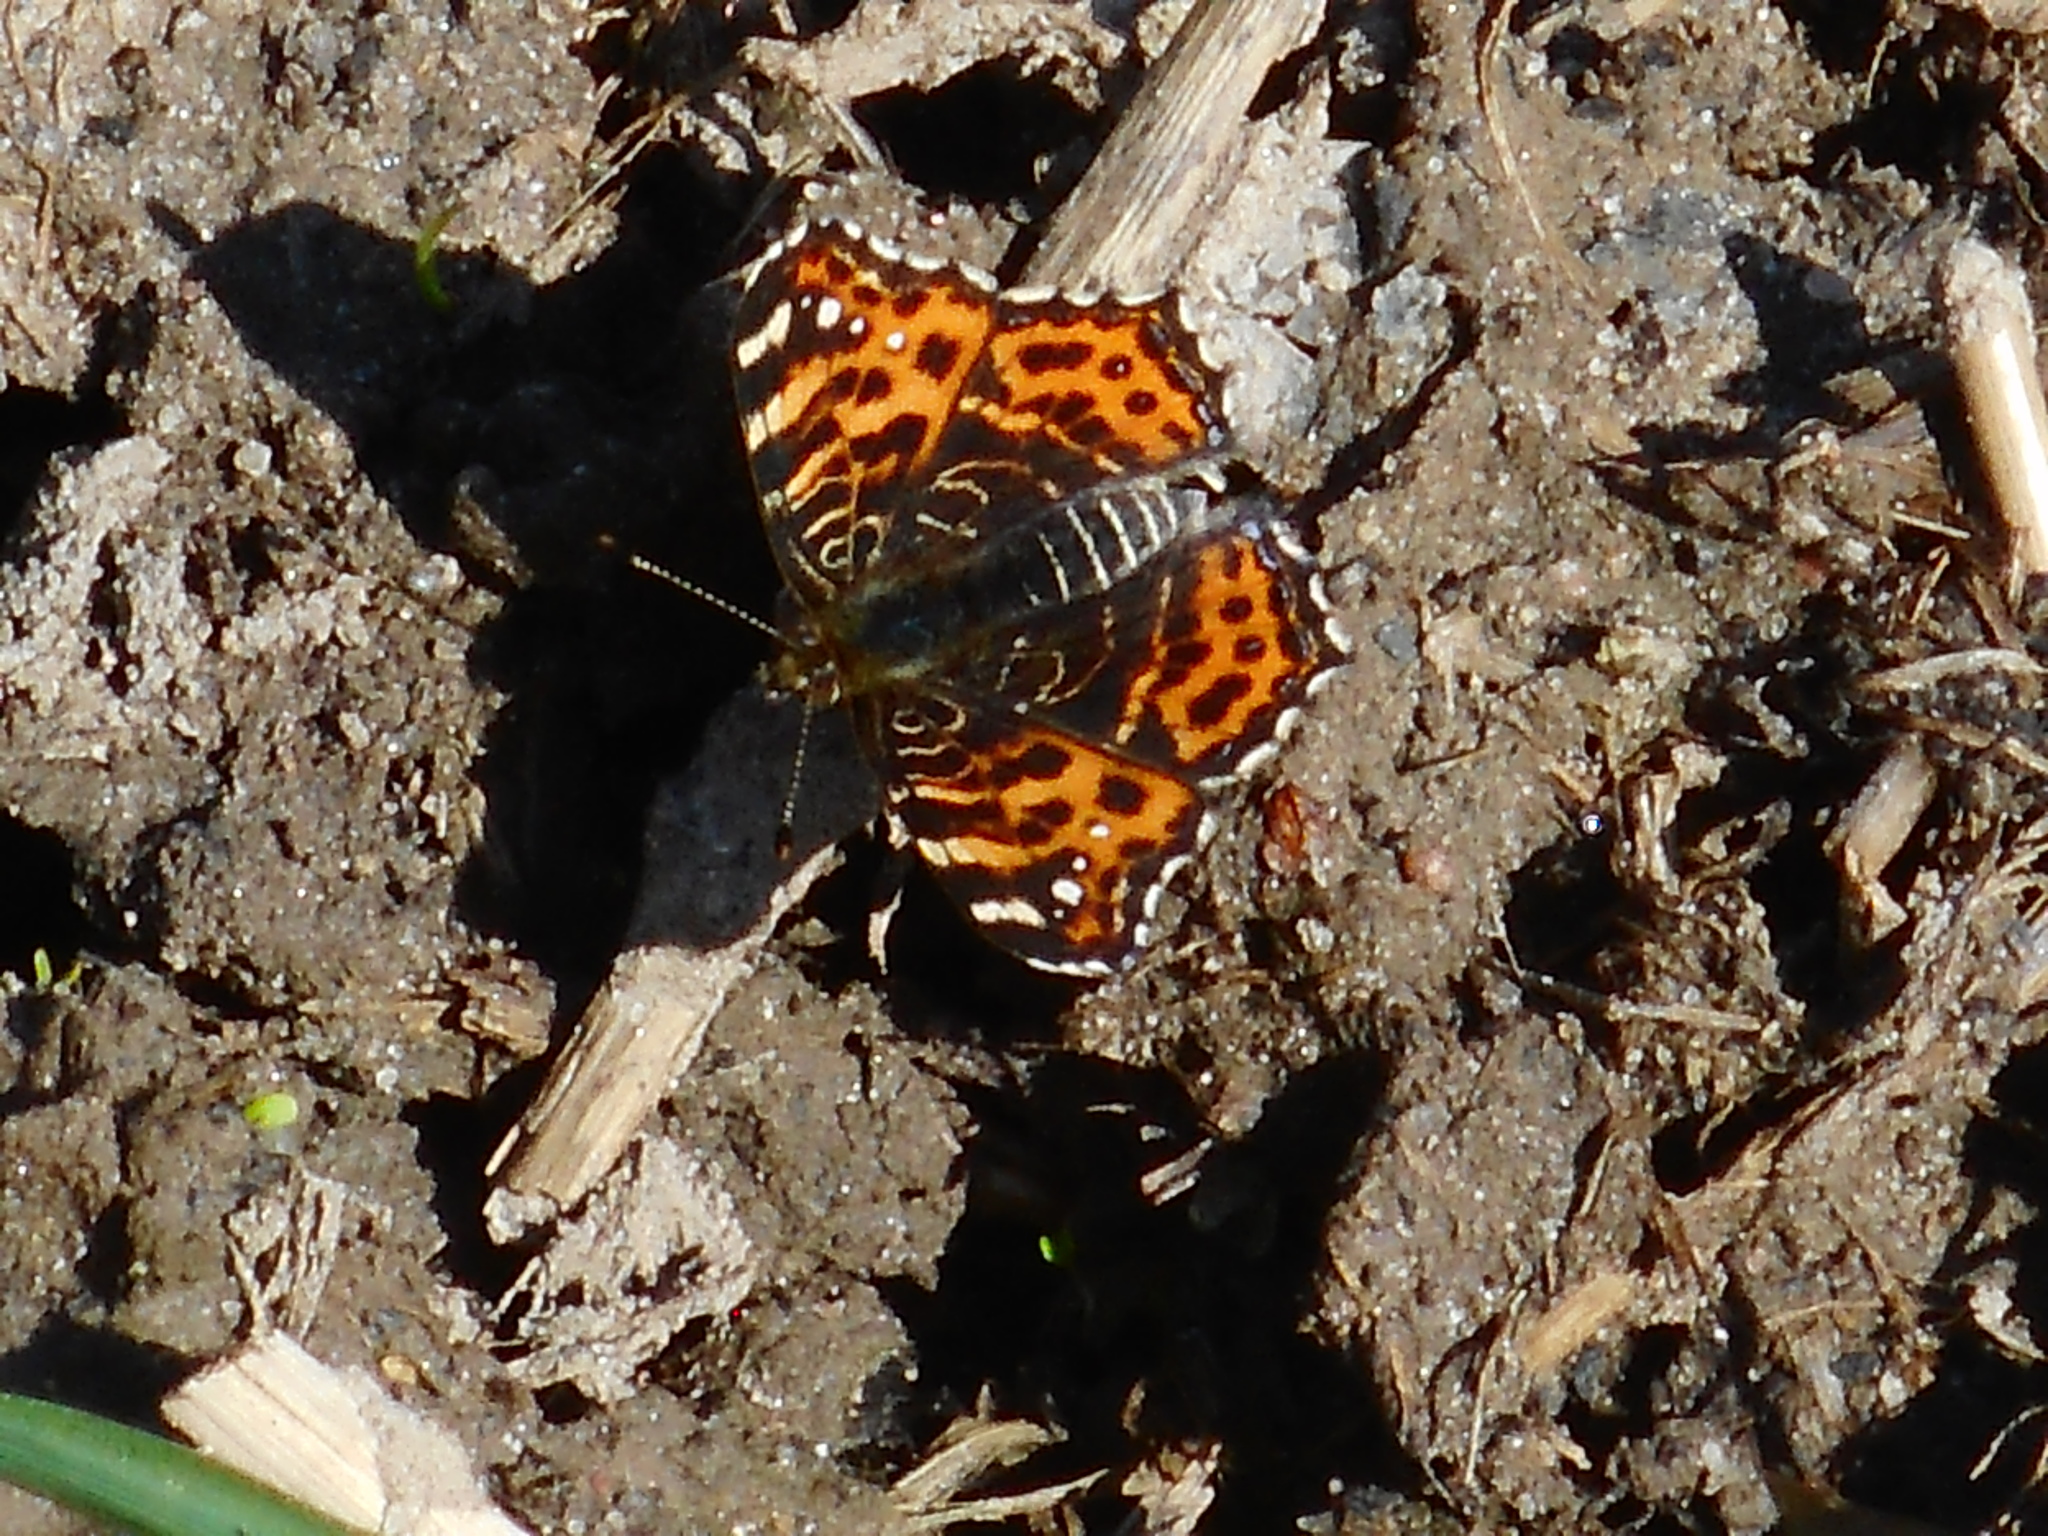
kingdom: Animalia
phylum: Arthropoda
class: Insecta
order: Lepidoptera
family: Nymphalidae
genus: Araschnia
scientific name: Araschnia levana
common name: Map butterfly
